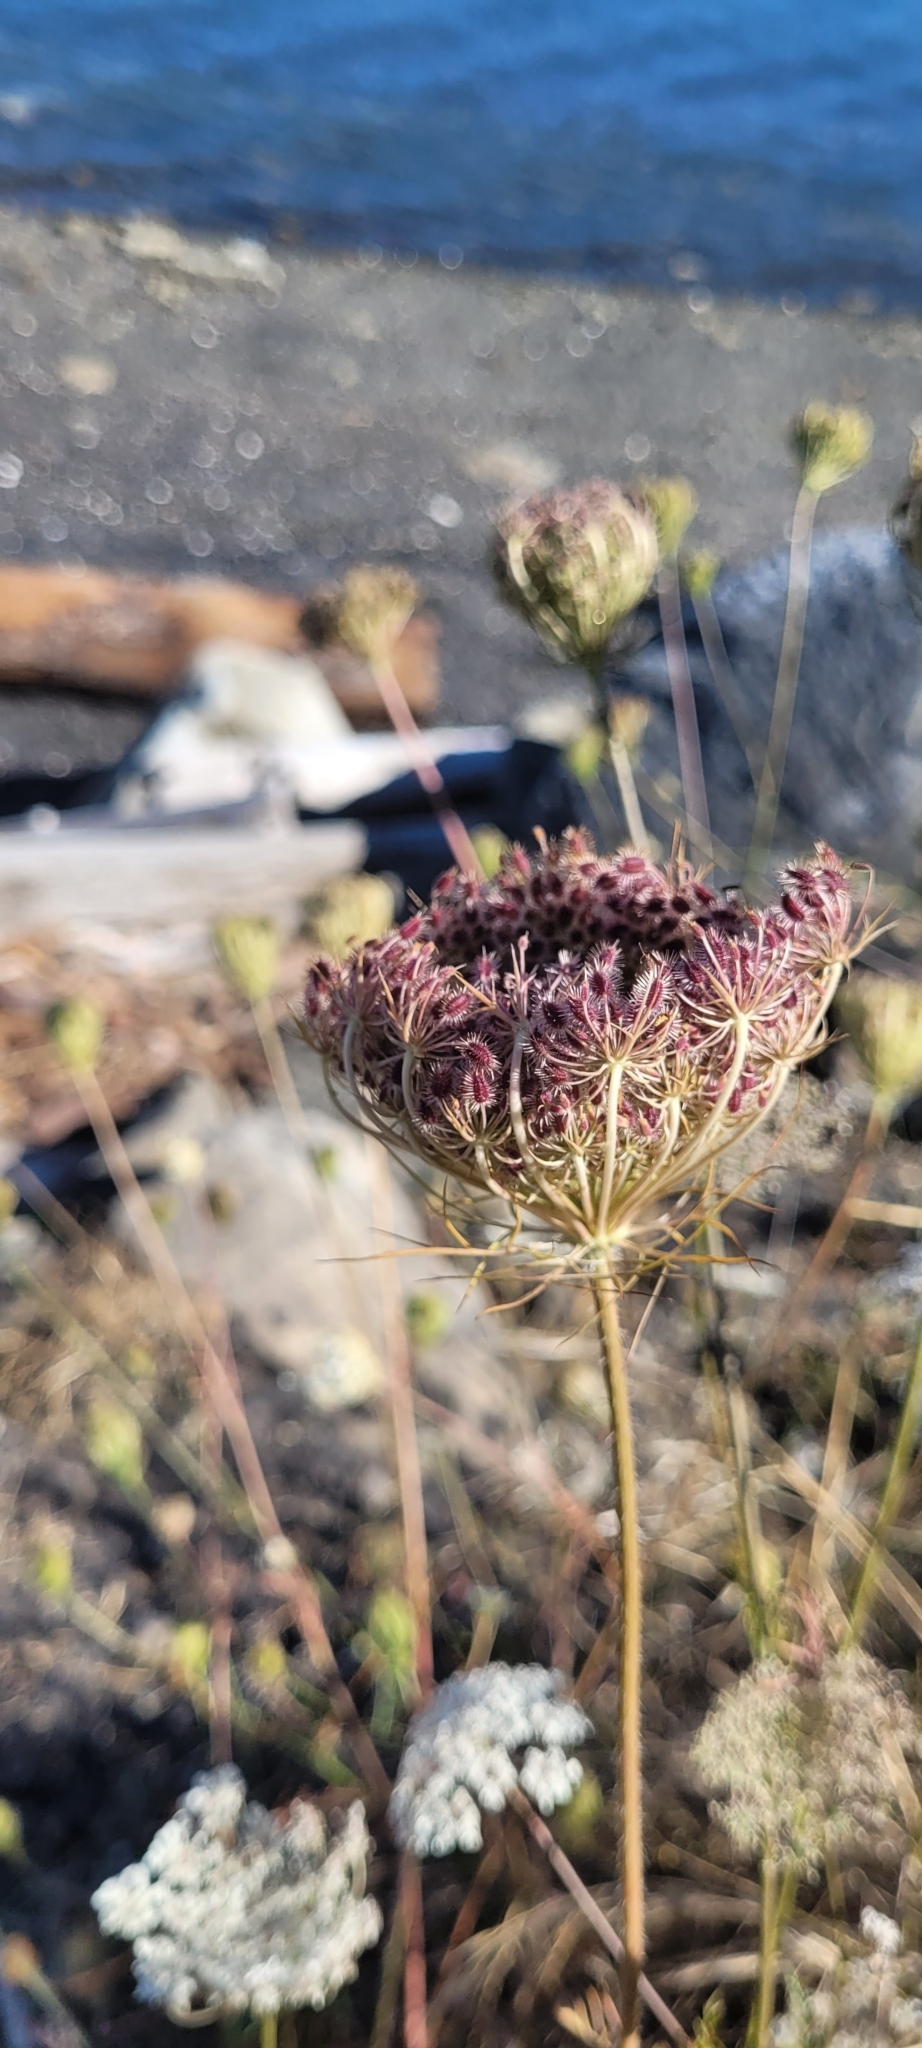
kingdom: Plantae
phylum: Tracheophyta
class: Magnoliopsida
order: Apiales
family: Apiaceae
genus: Daucus
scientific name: Daucus carota
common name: Wild carrot
